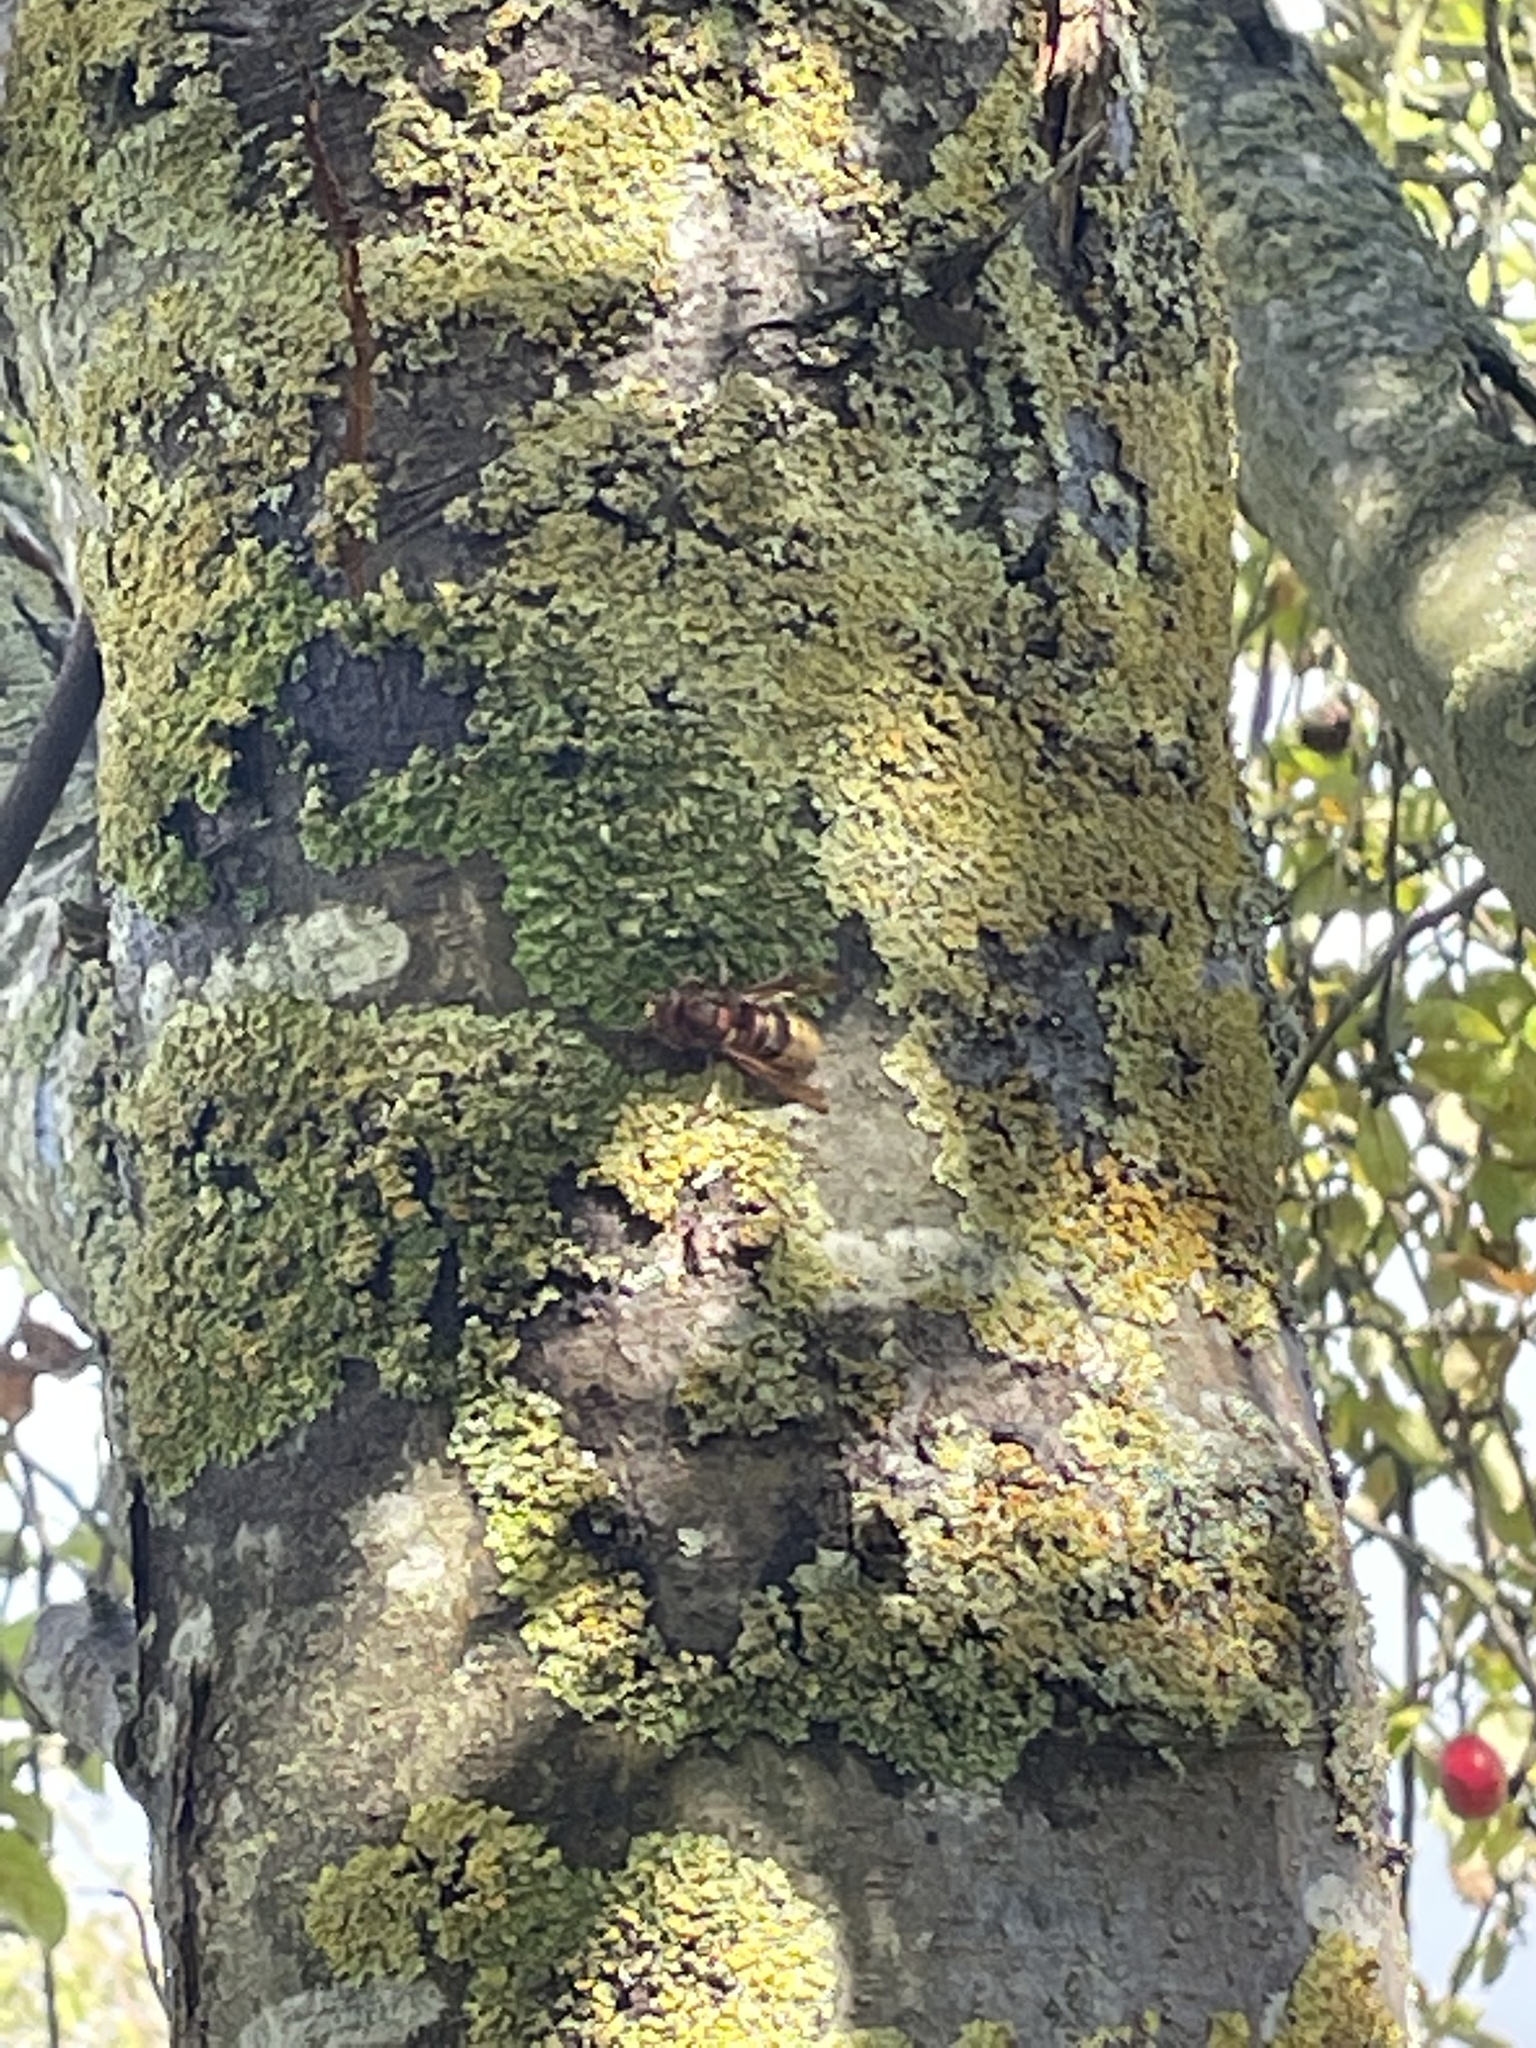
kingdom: Animalia
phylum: Arthropoda
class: Insecta
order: Hymenoptera
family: Vespidae
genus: Vespa
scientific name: Vespa crabro
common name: Hornet
